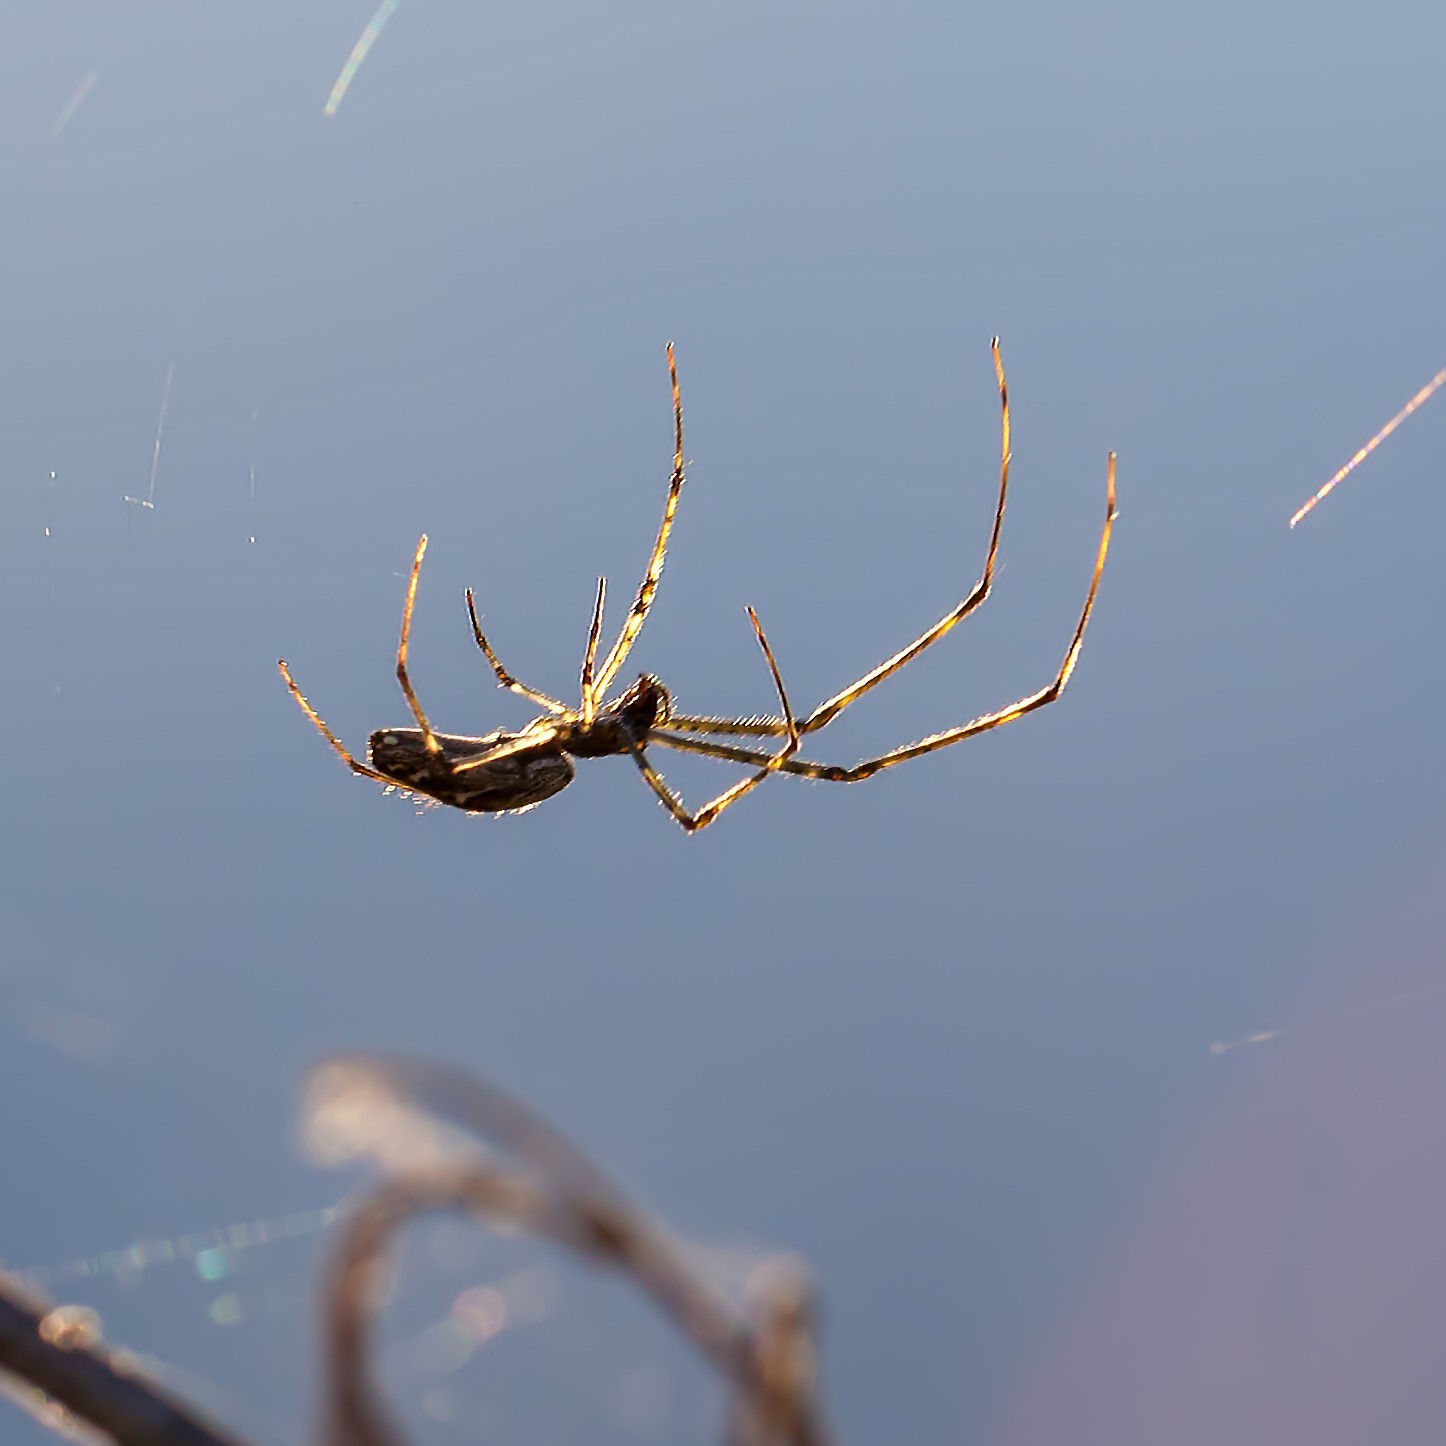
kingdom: Animalia
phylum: Arthropoda
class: Arachnida
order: Araneae
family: Tetragnathidae
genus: Tetragnatha
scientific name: Tetragnatha
